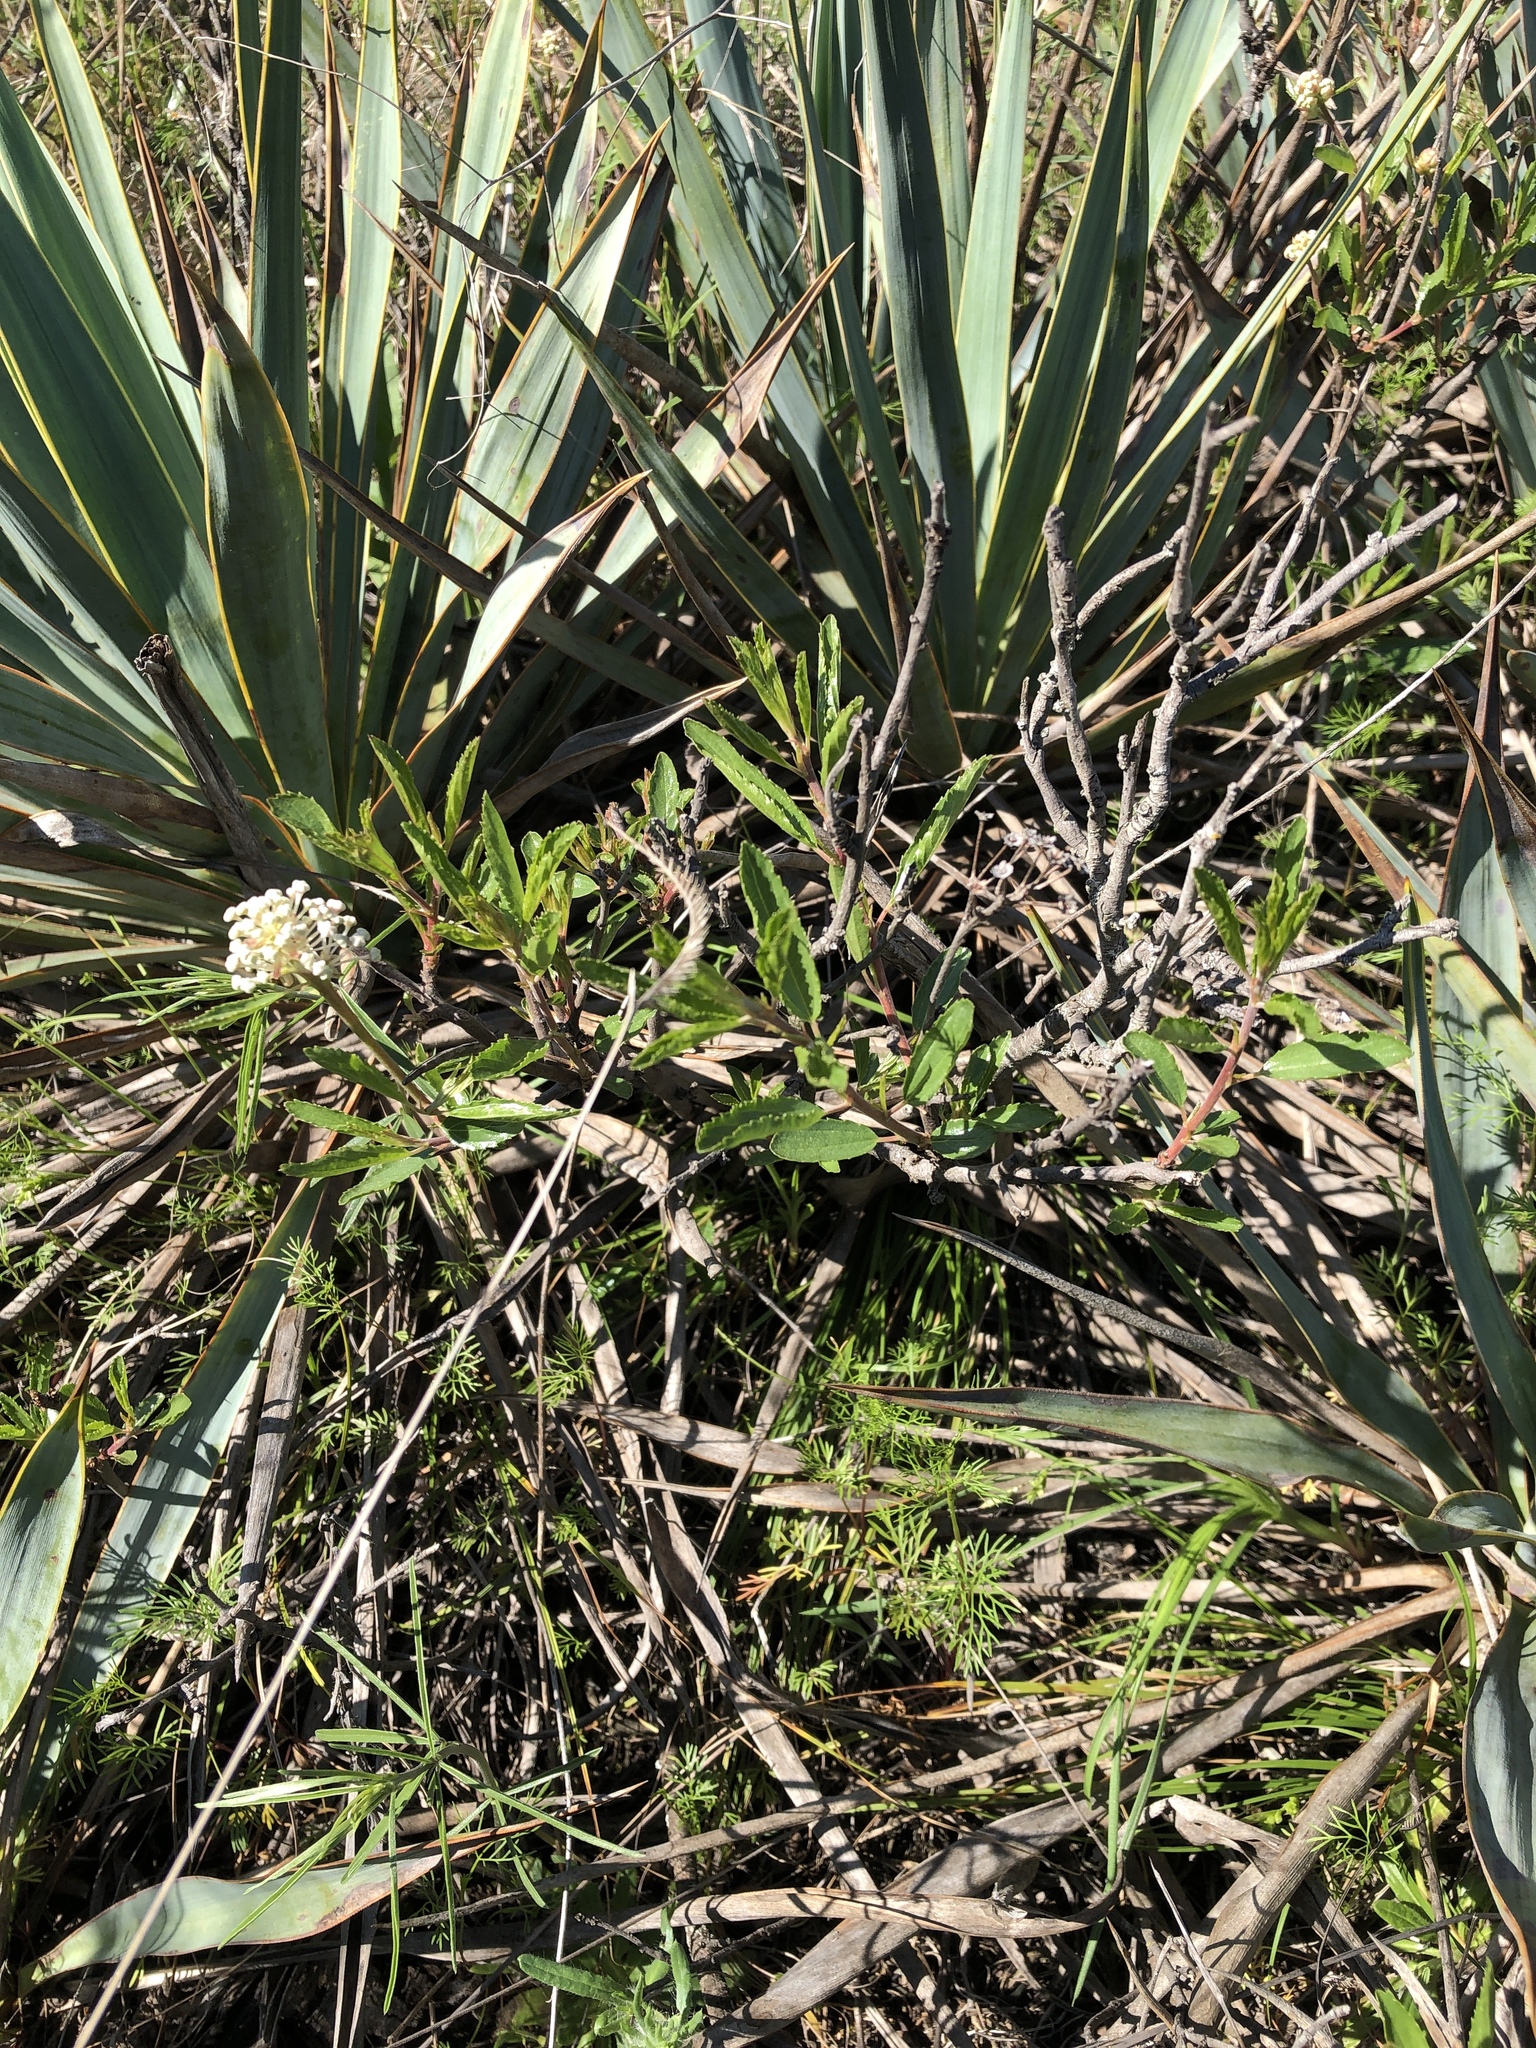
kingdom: Plantae
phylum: Tracheophyta
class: Magnoliopsida
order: Rosales
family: Rhamnaceae
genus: Ceanothus
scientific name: Ceanothus herbaceus
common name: Inland ceanothus
